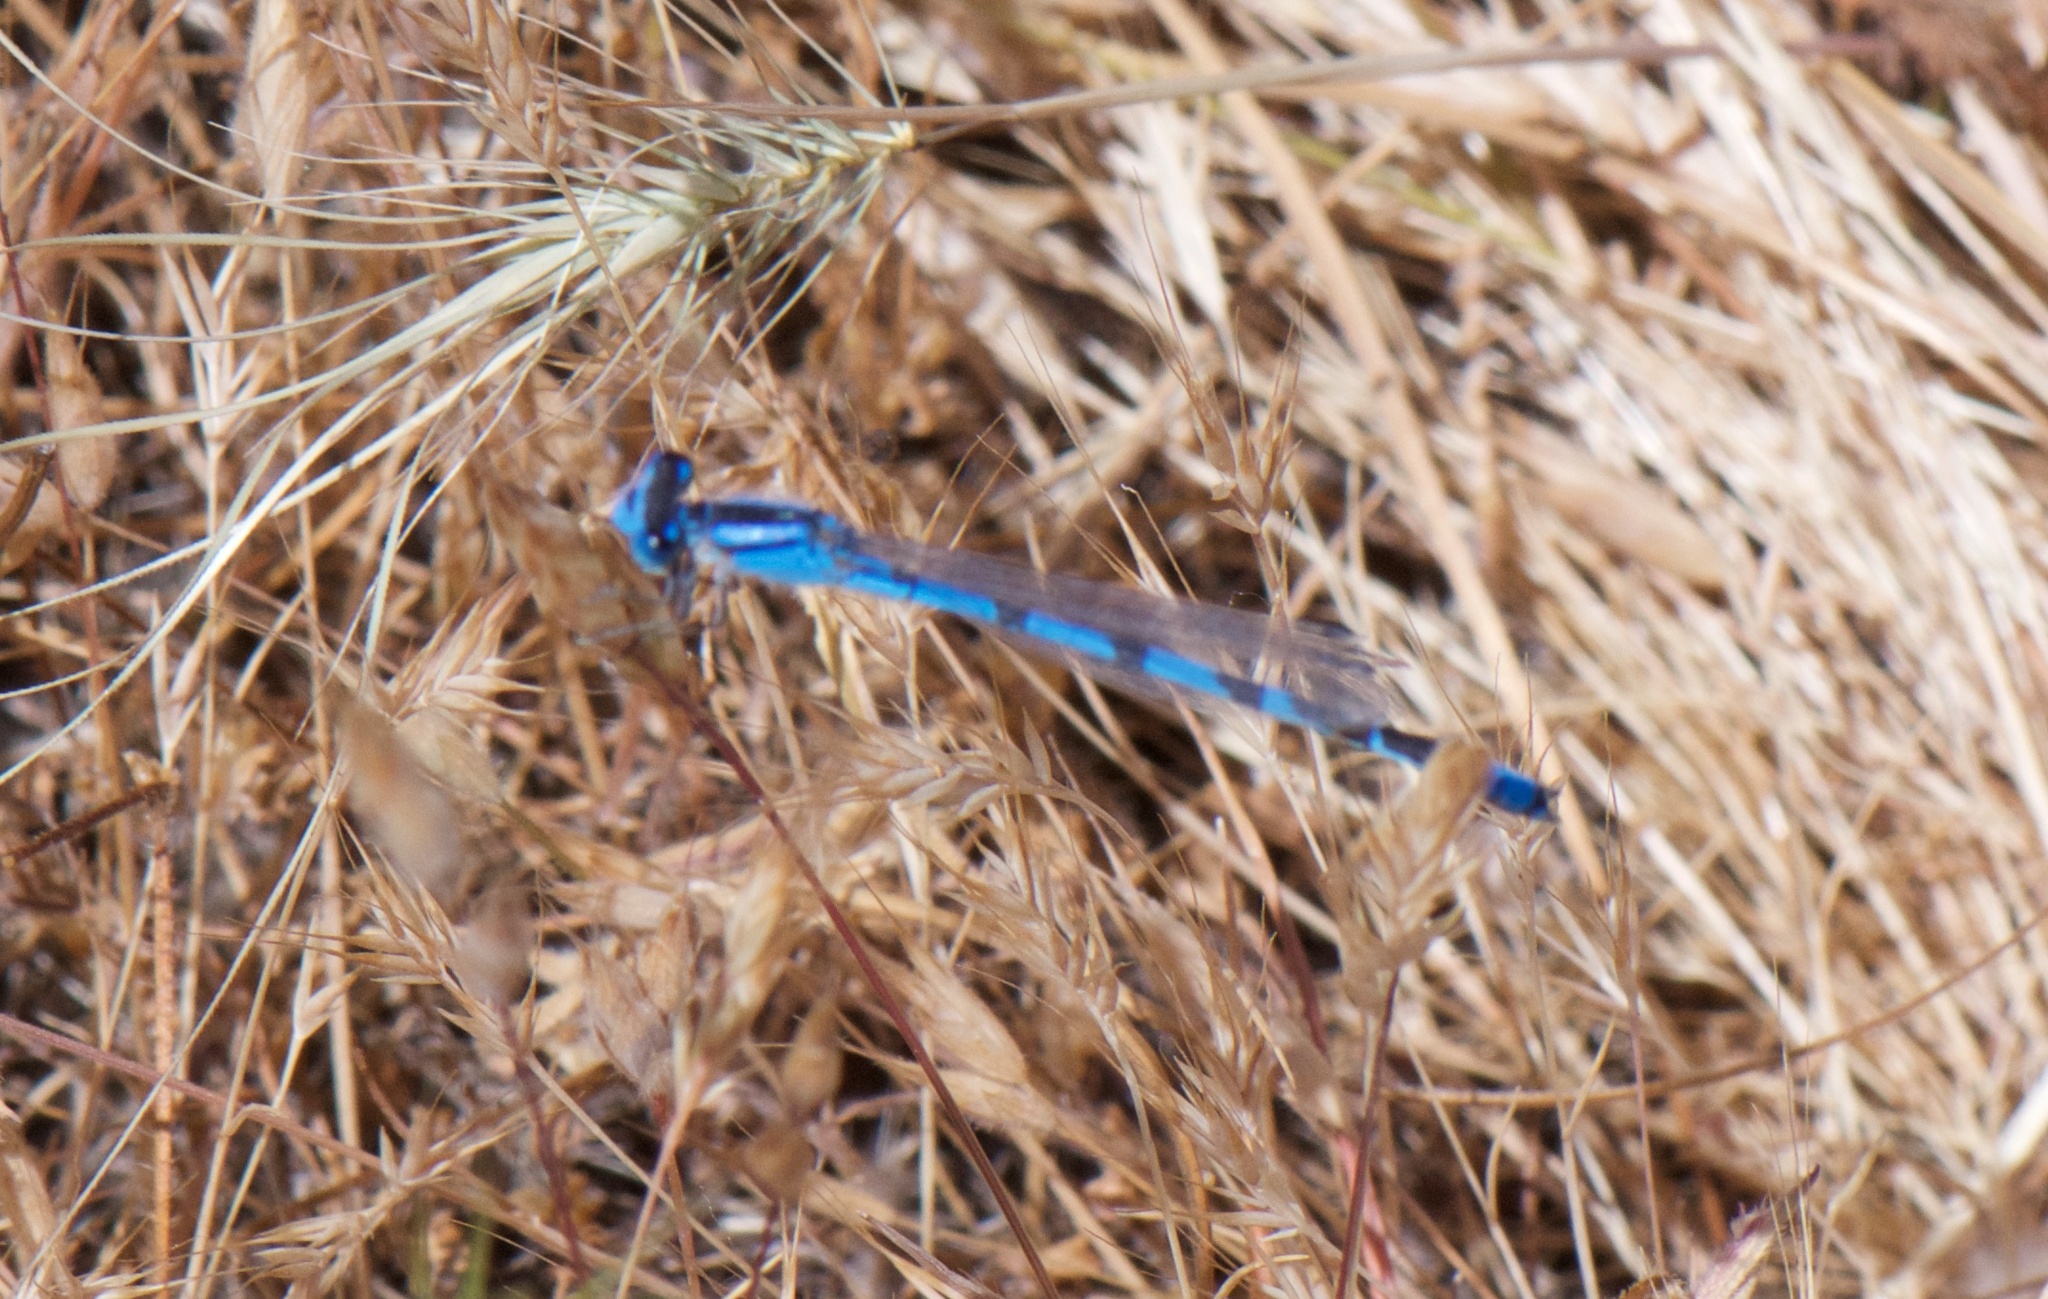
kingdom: Animalia
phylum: Arthropoda
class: Insecta
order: Odonata
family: Coenagrionidae
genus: Enallagma
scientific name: Enallagma civile
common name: Damselfly
